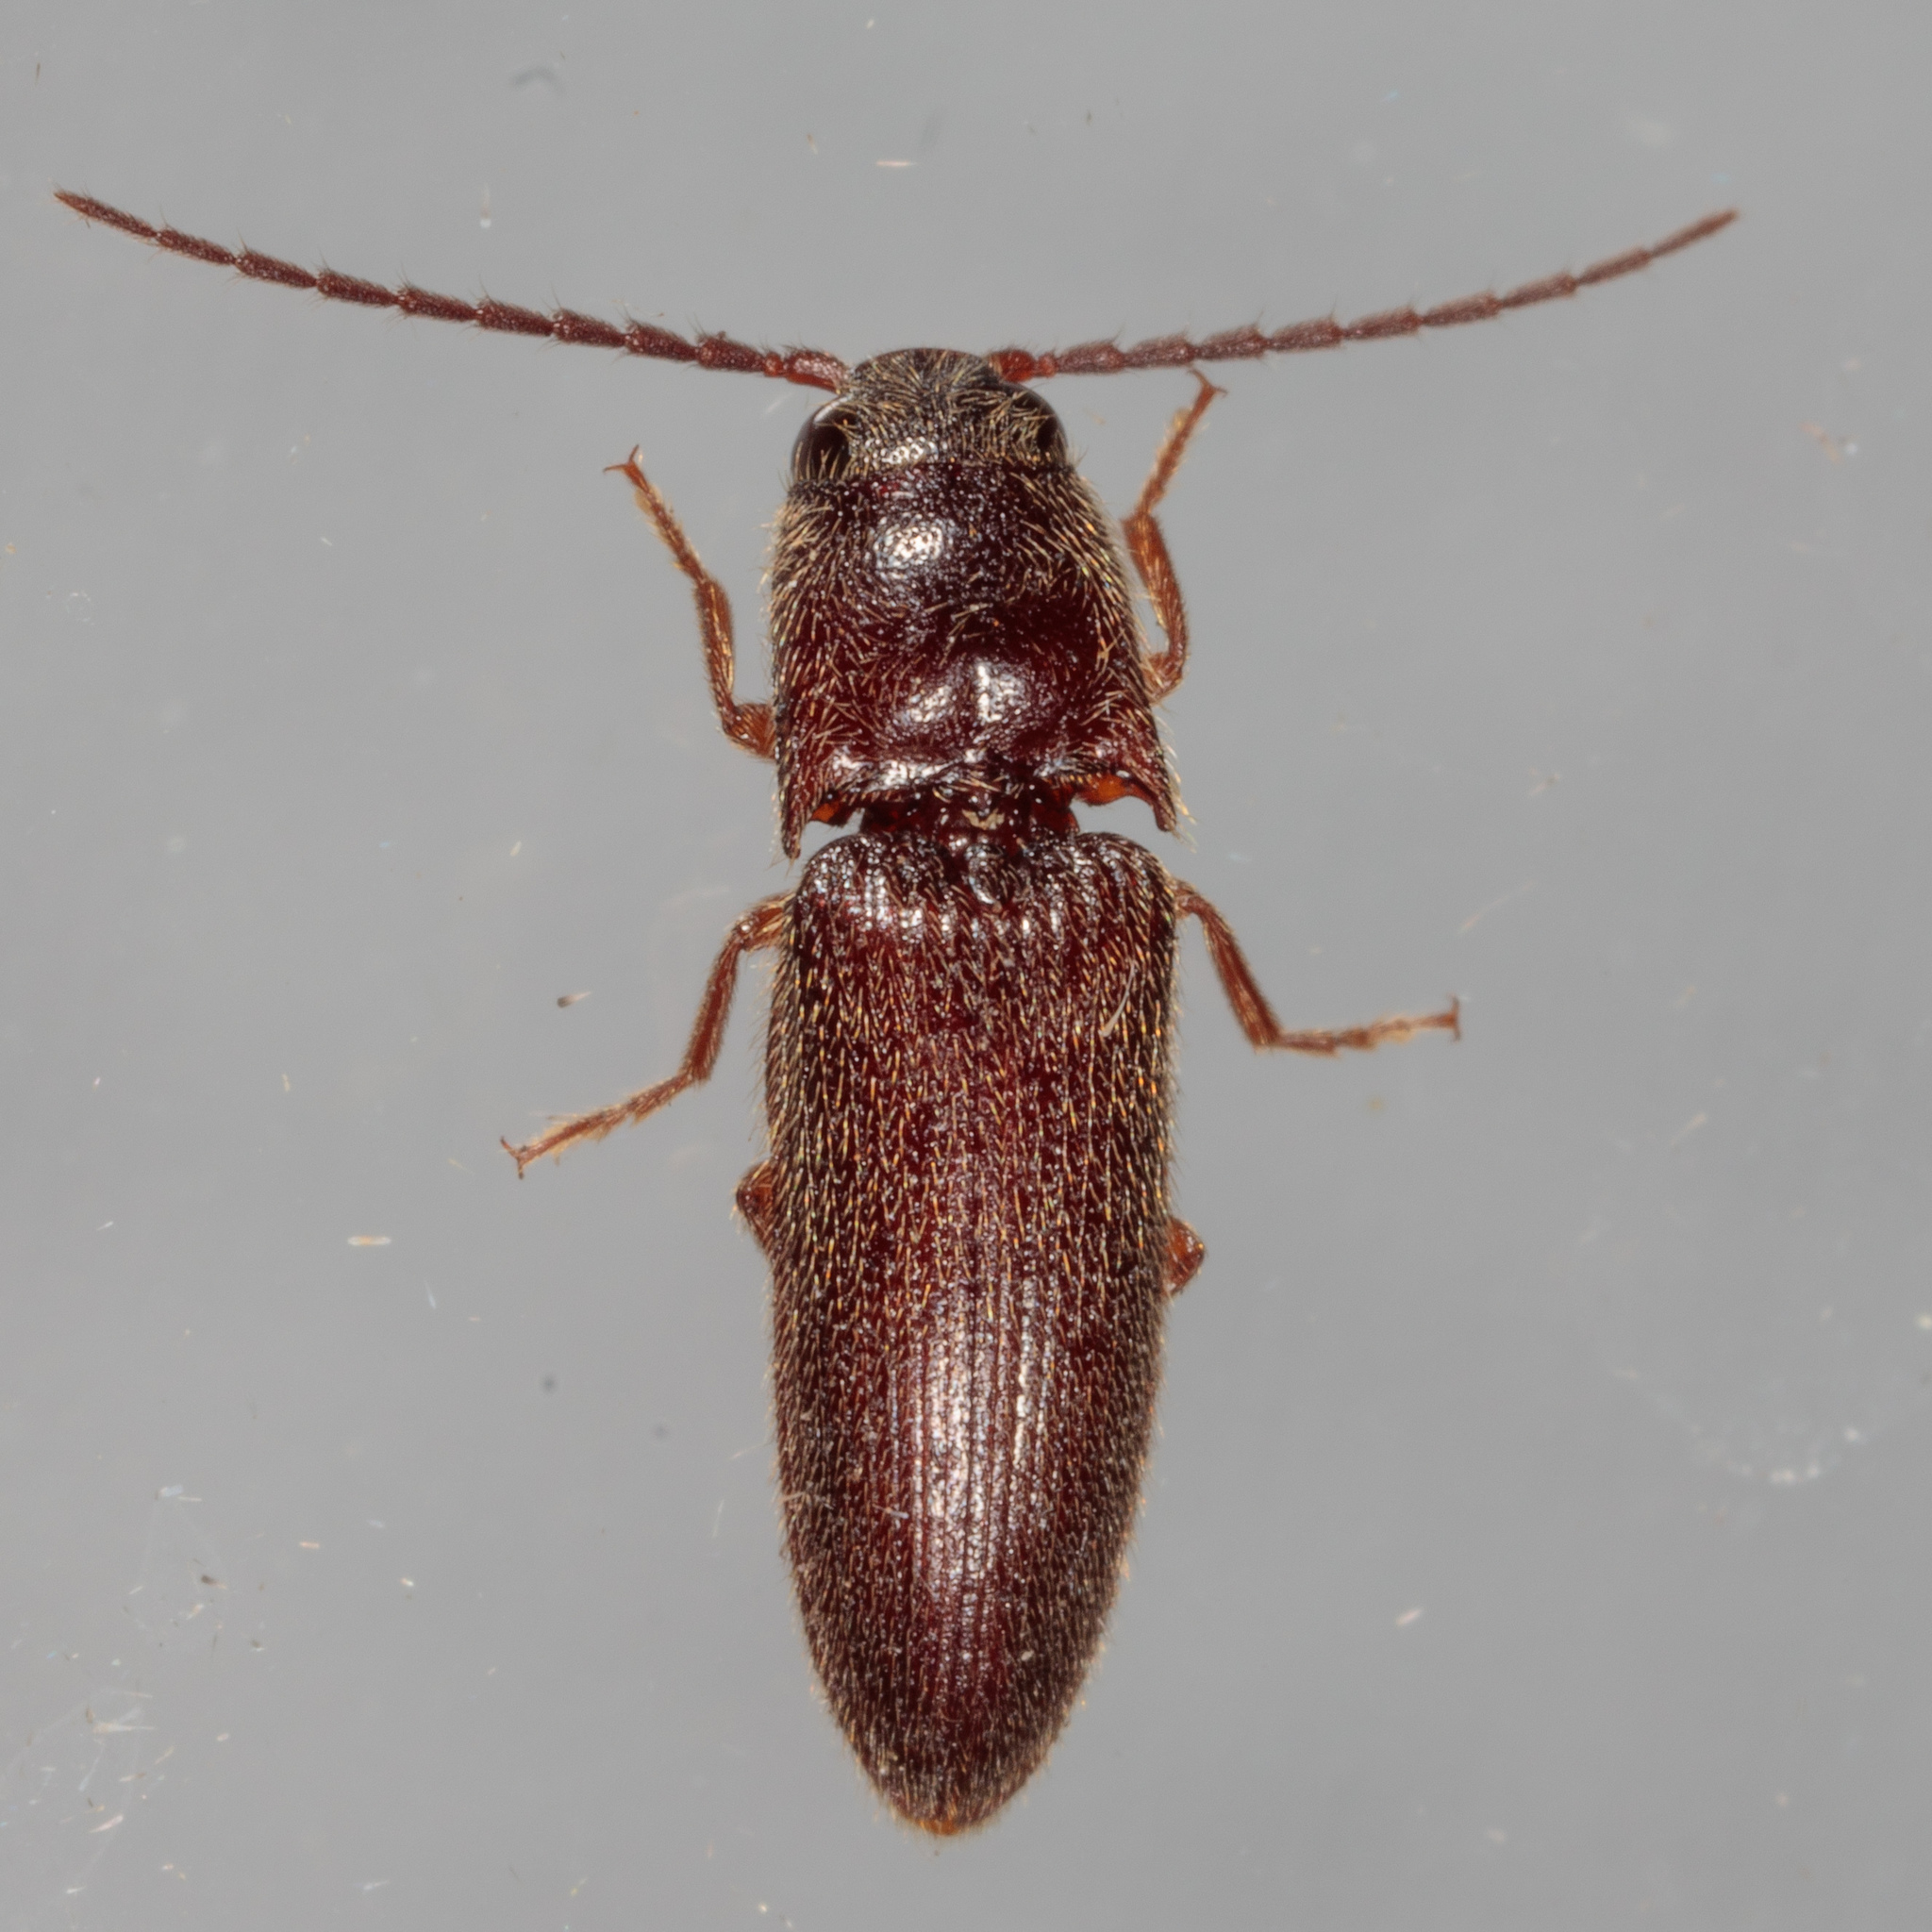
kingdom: Animalia
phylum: Arthropoda
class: Insecta
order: Coleoptera
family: Elateridae
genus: Dipropus
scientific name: Dipropus
